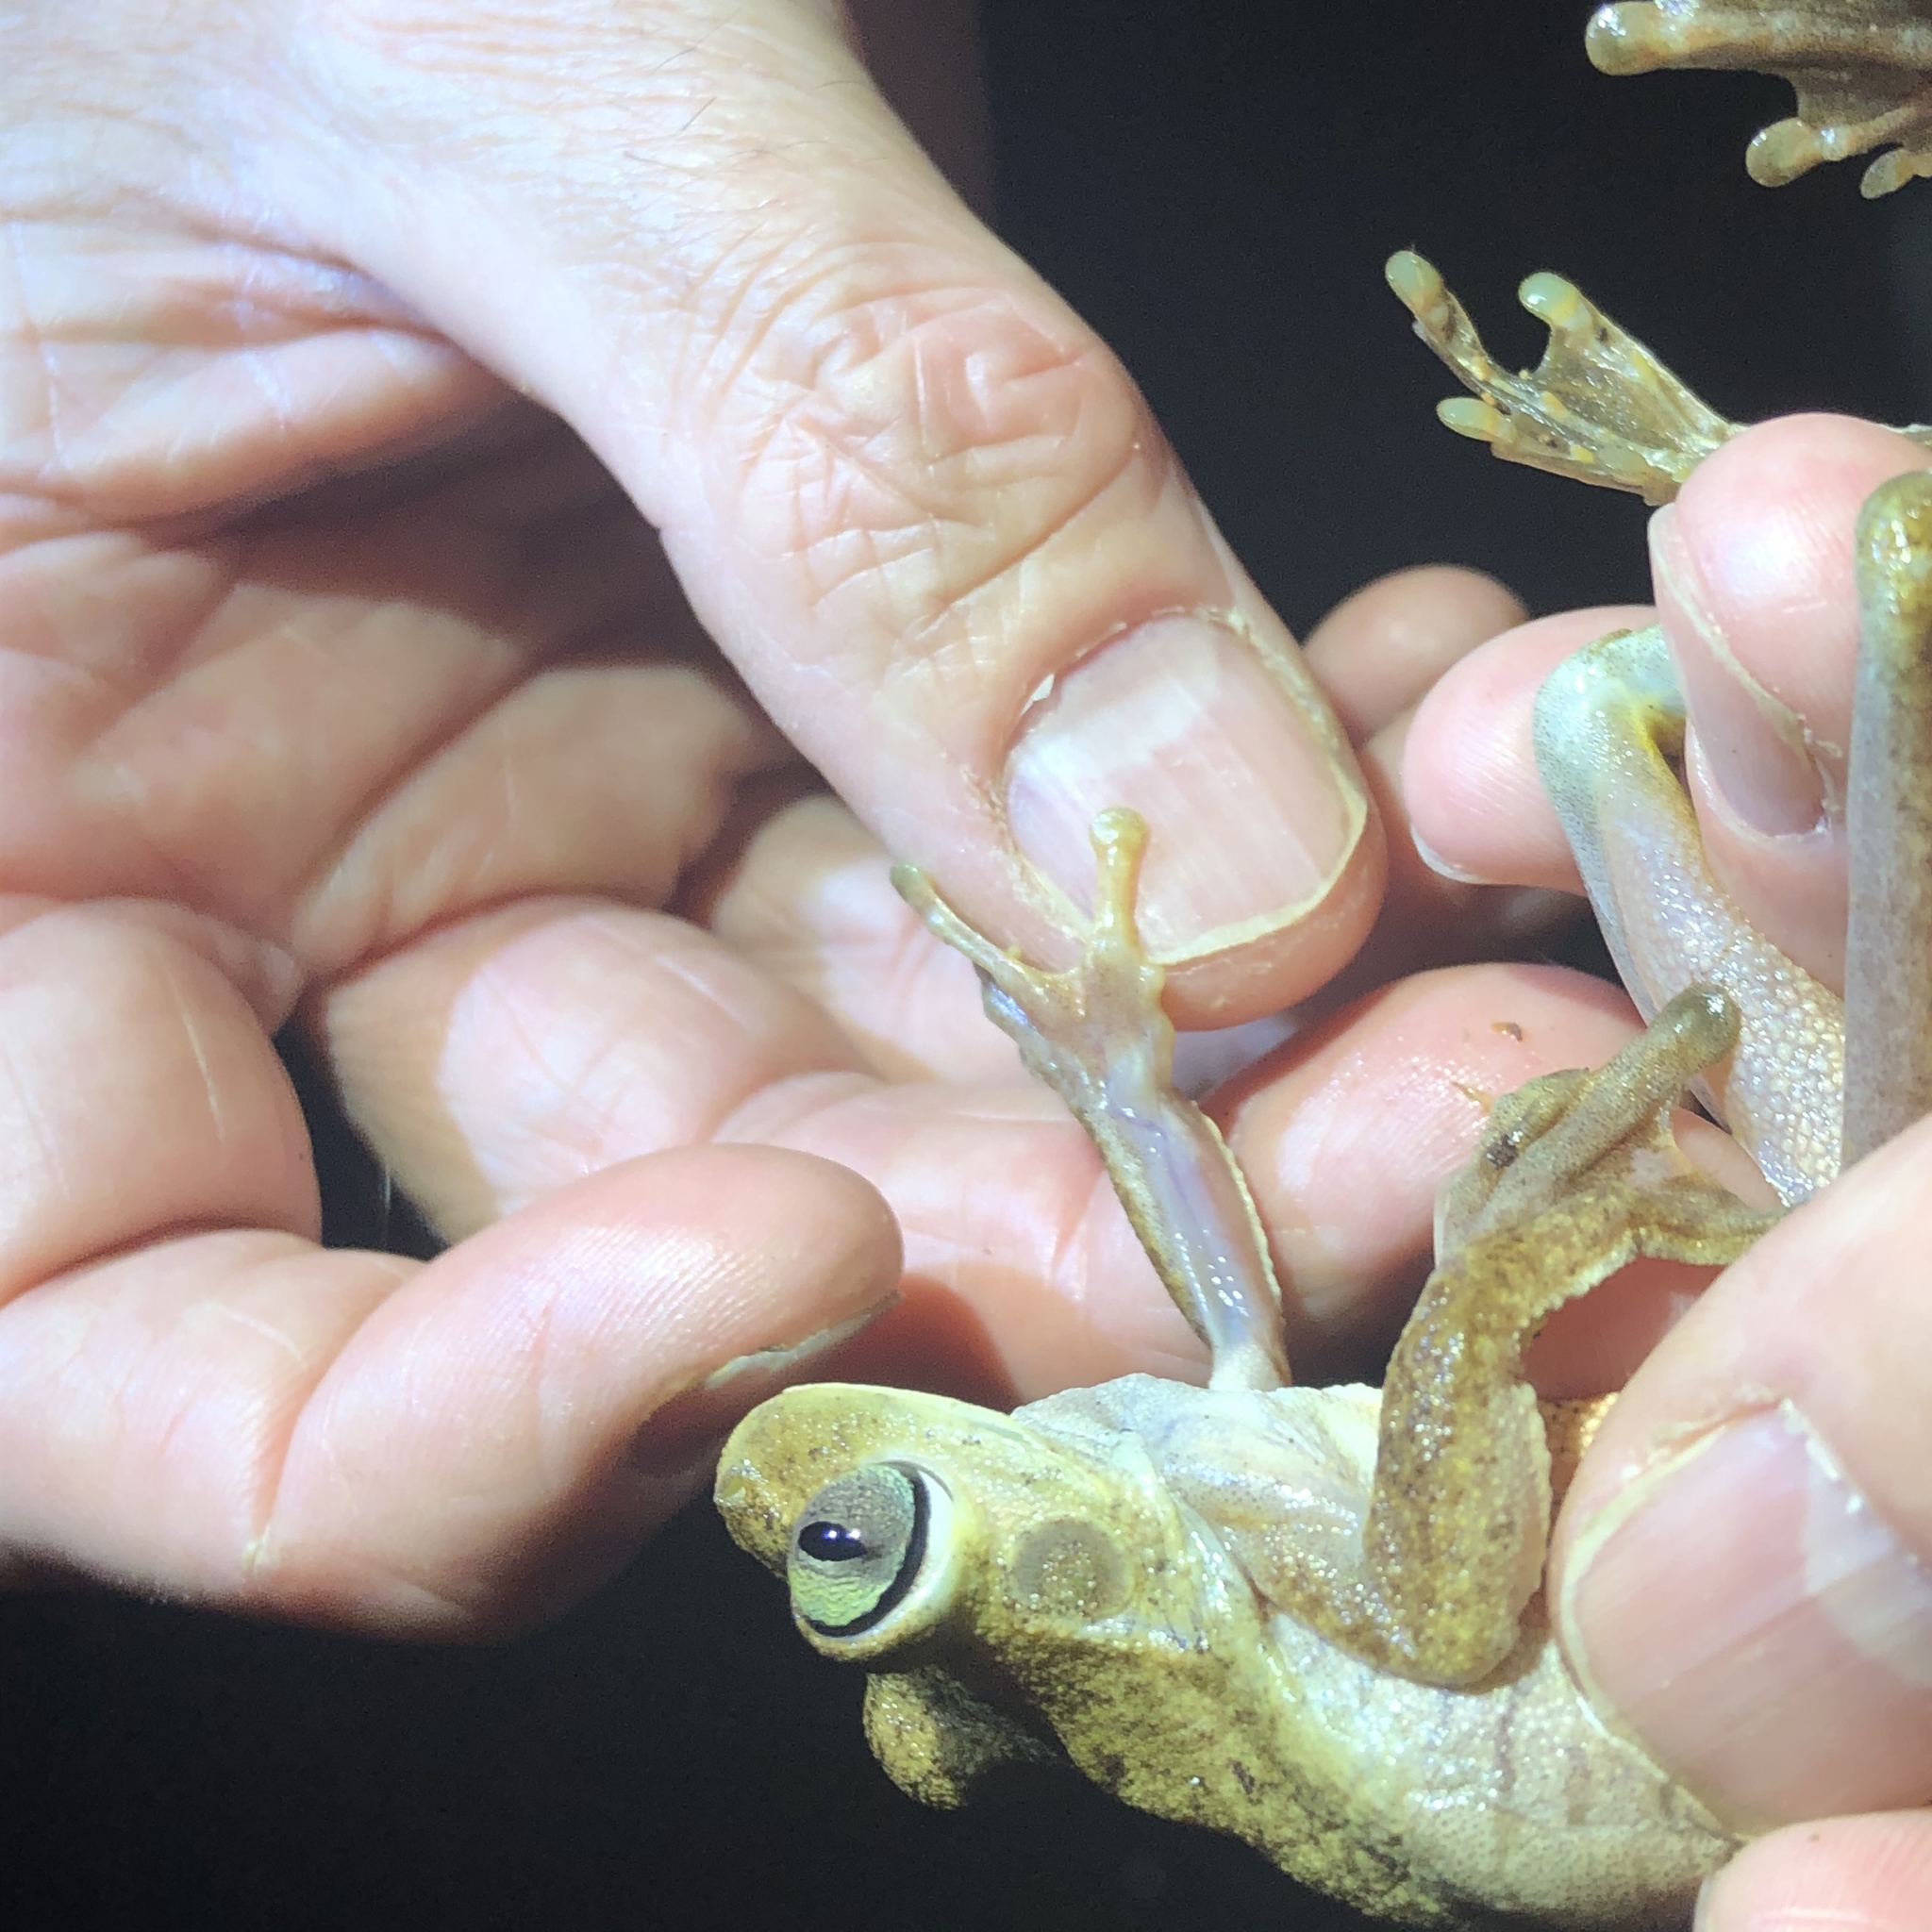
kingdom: Animalia
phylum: Chordata
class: Amphibia
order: Anura
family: Hylidae
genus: Boana
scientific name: Boana rosenbergi
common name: Rosenberg´s gladiator treefrog
